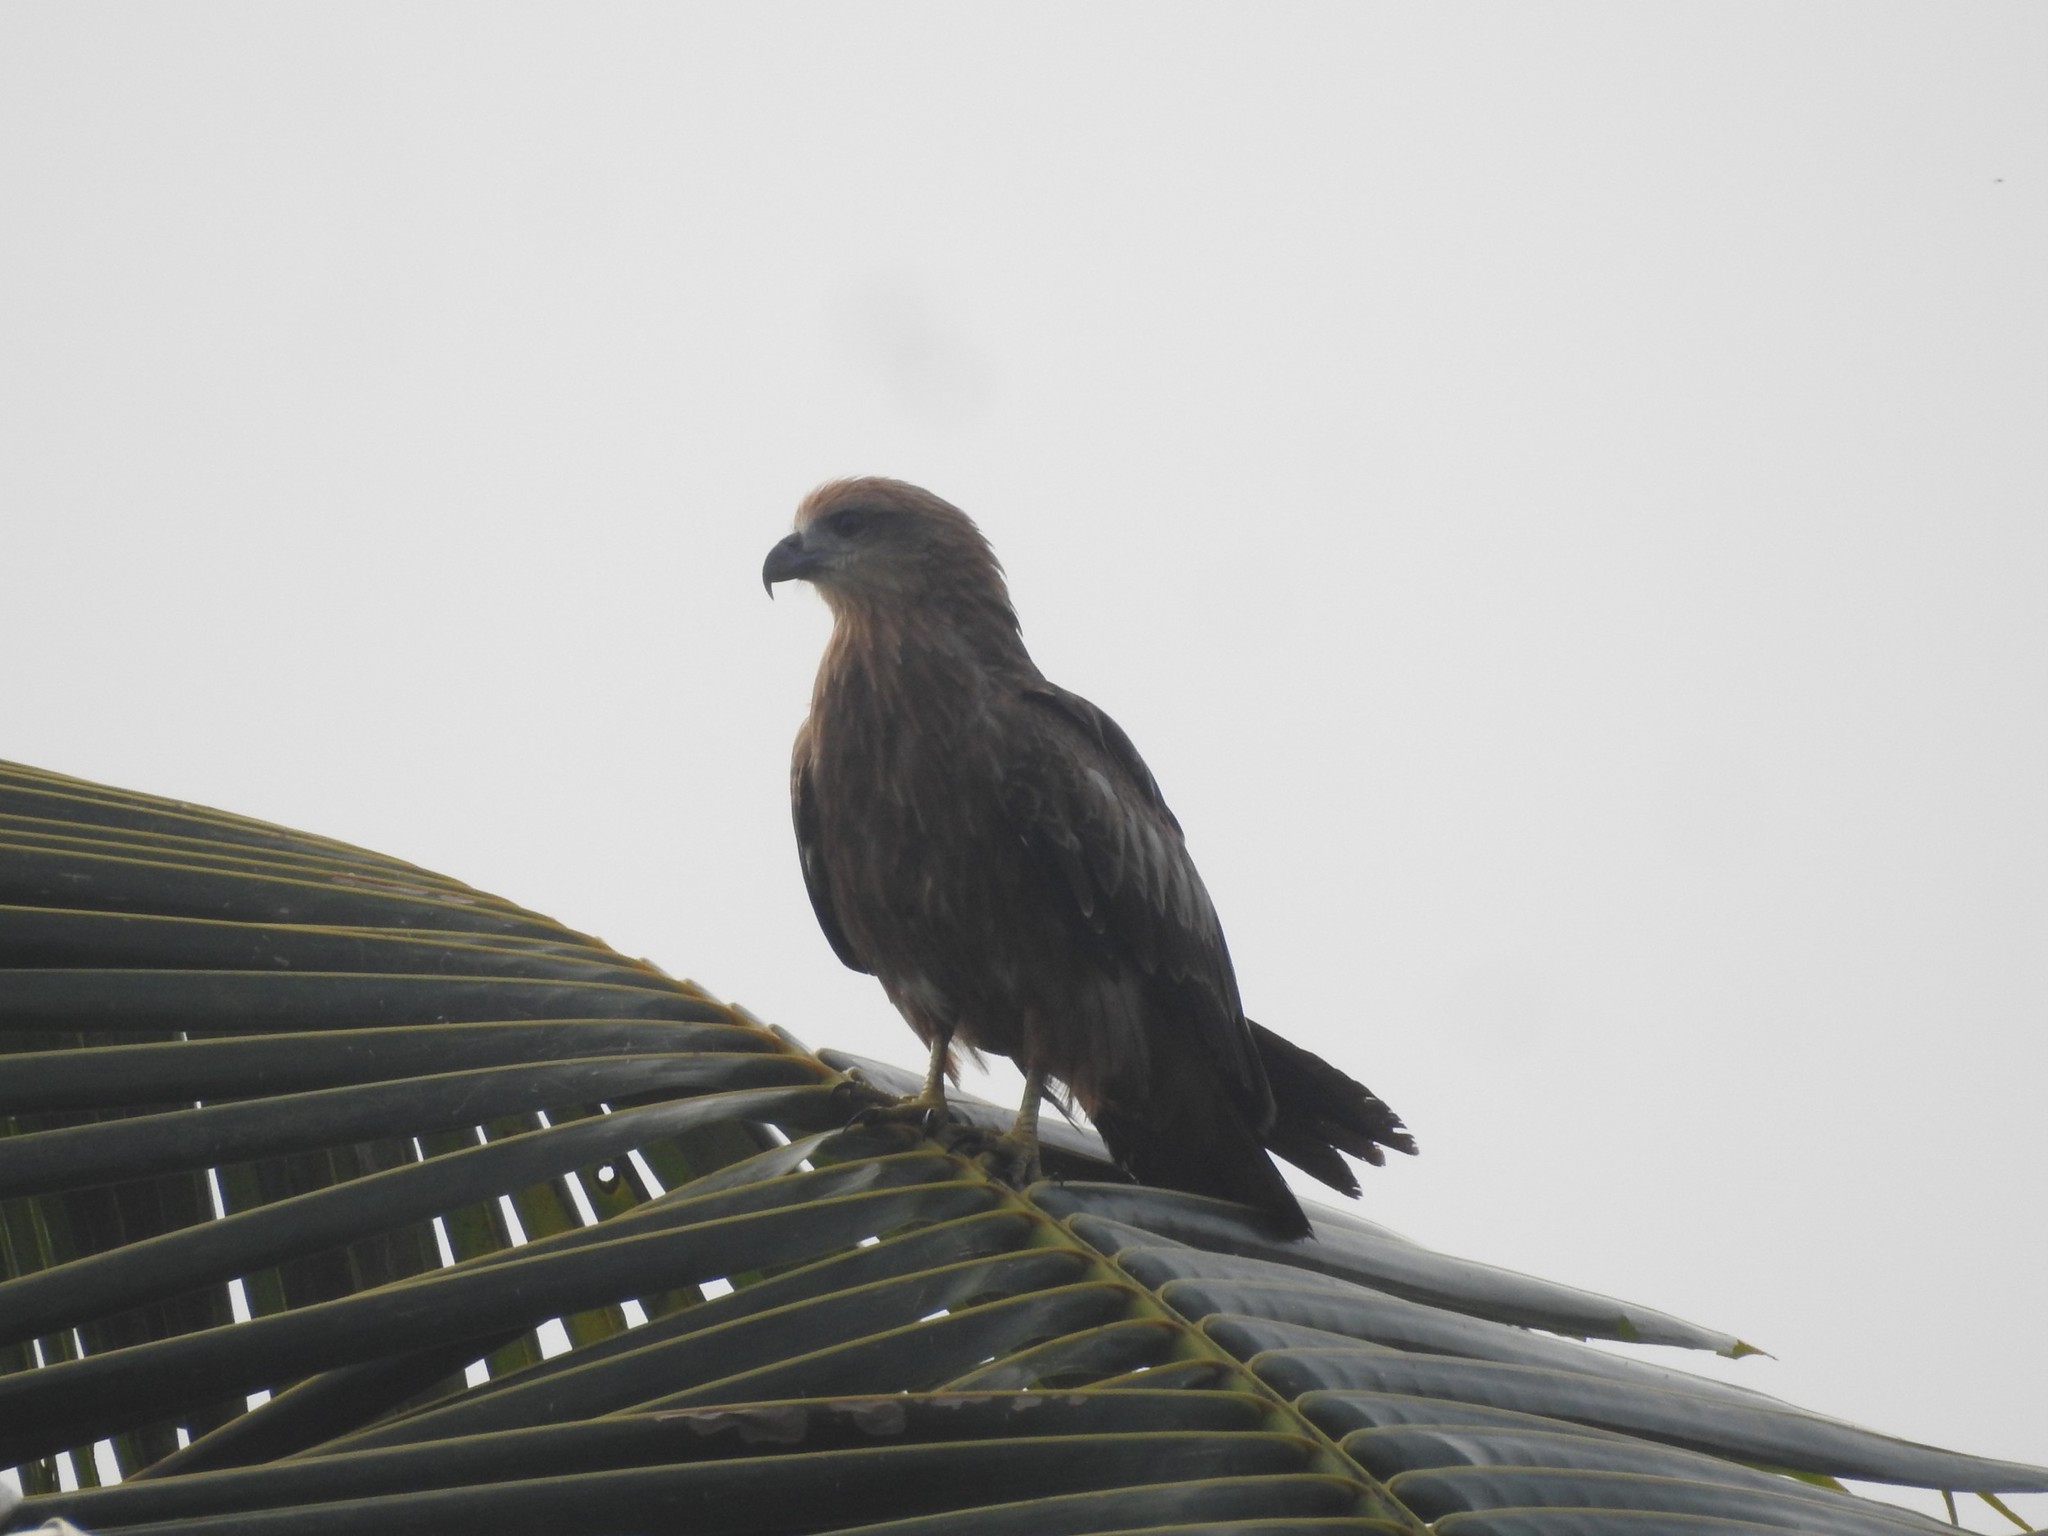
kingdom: Animalia
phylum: Chordata
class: Aves
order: Accipitriformes
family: Accipitridae
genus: Milvus
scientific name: Milvus migrans
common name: Black kite
